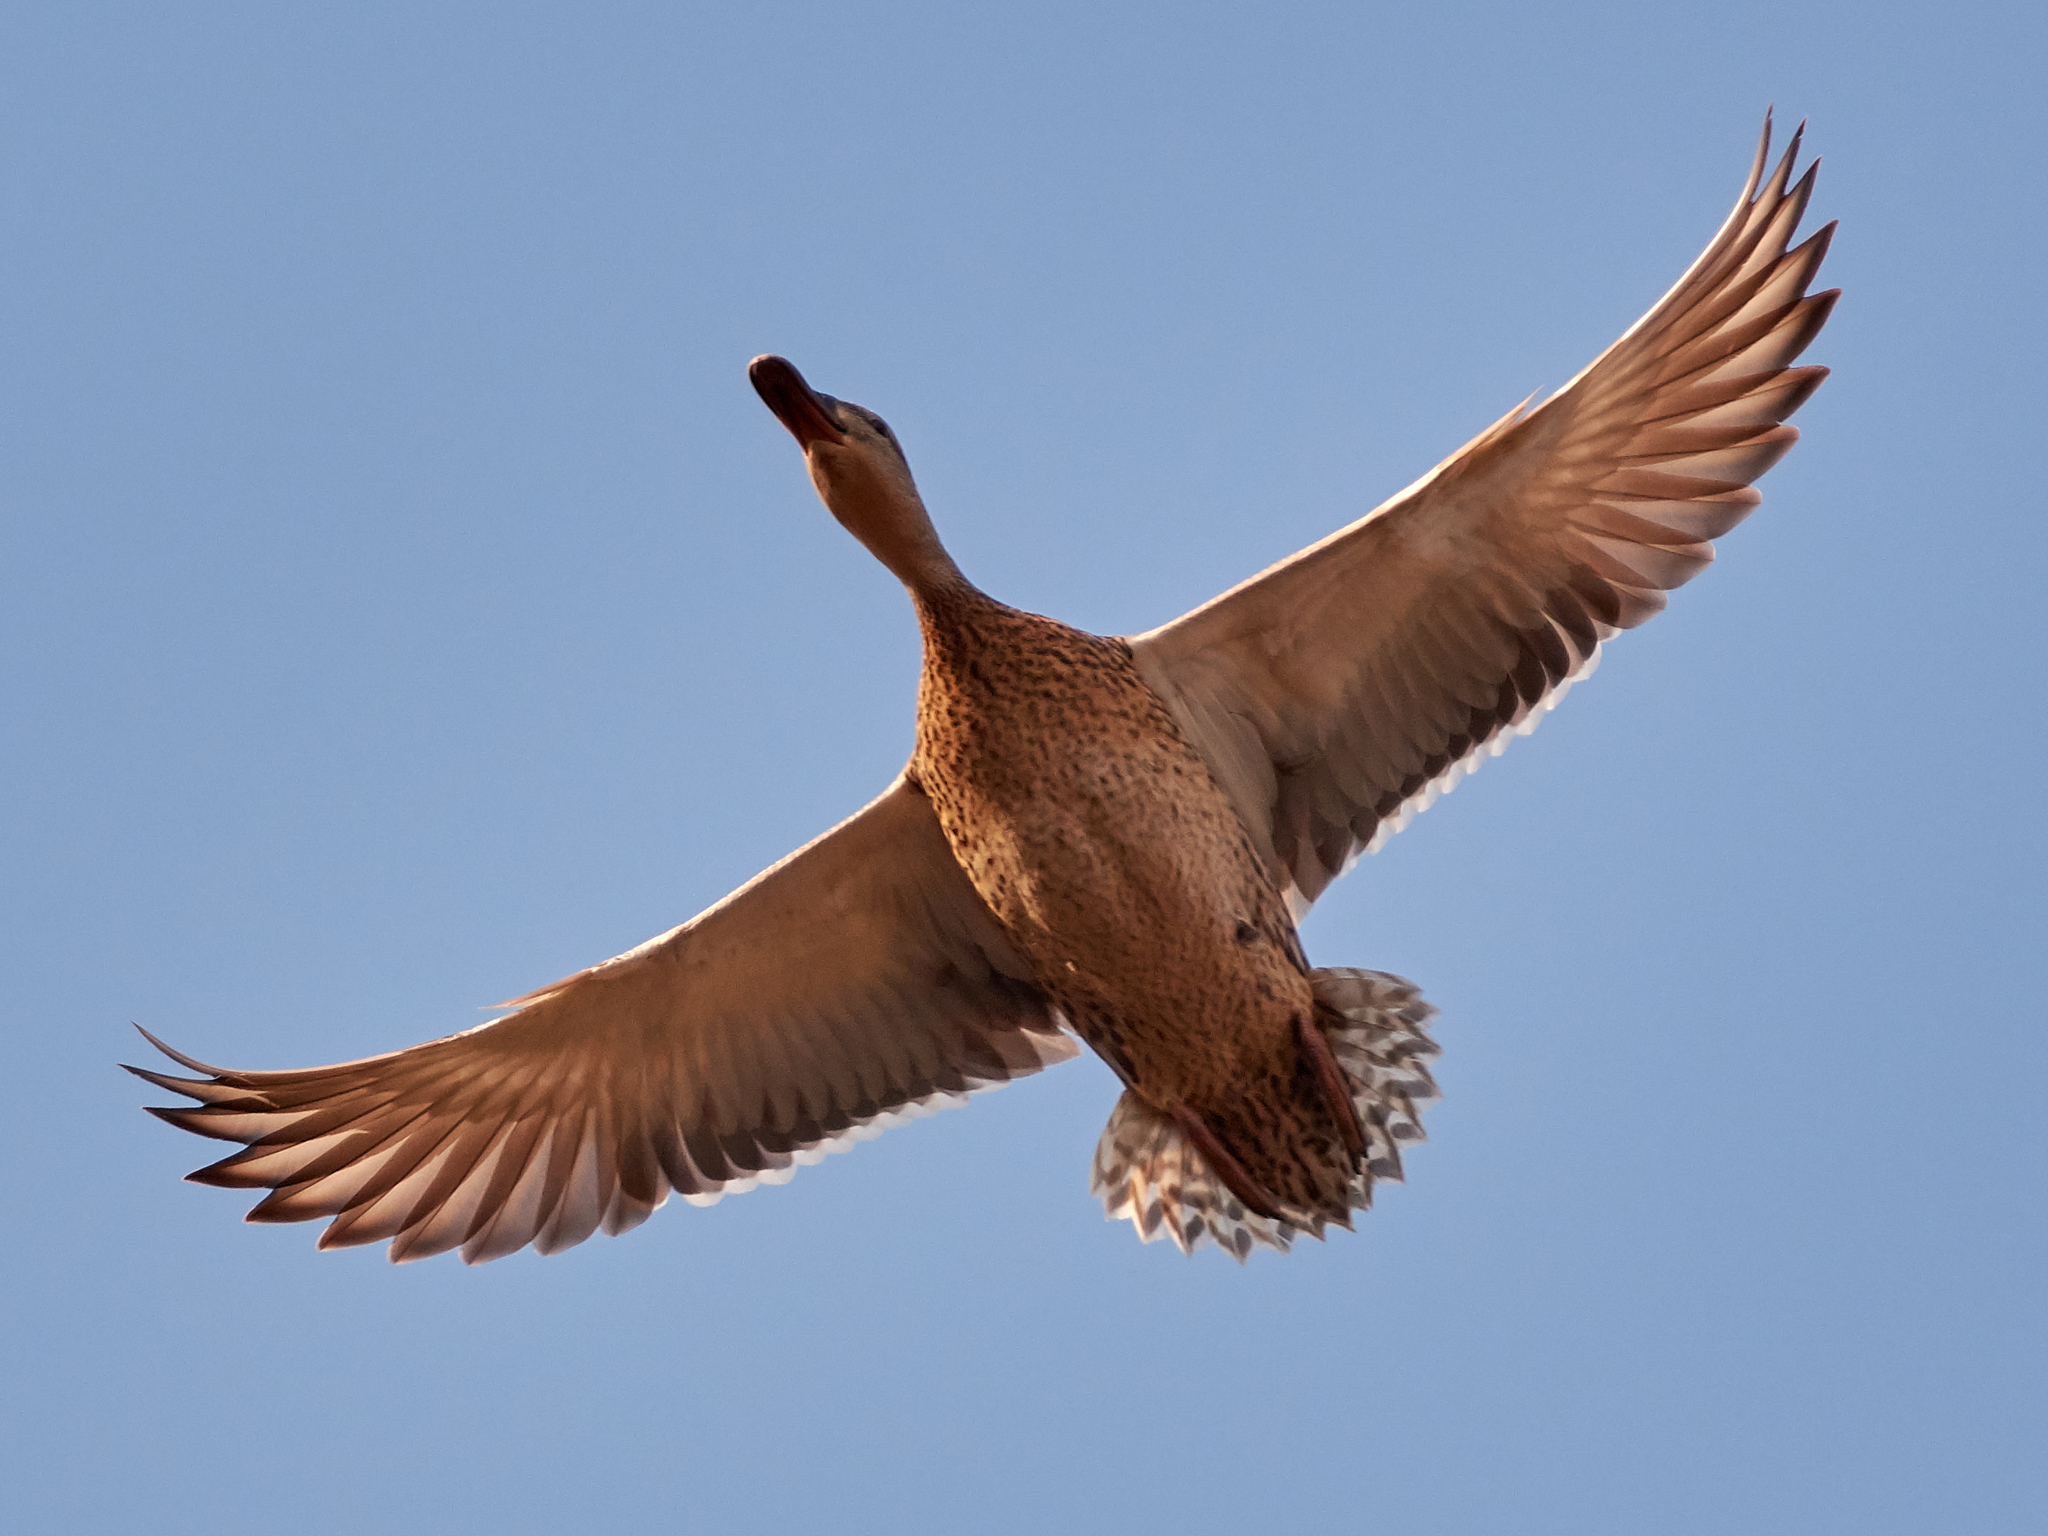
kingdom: Animalia
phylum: Chordata
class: Aves
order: Anseriformes
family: Anatidae
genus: Anas
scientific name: Anas platyrhynchos
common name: Mallard
